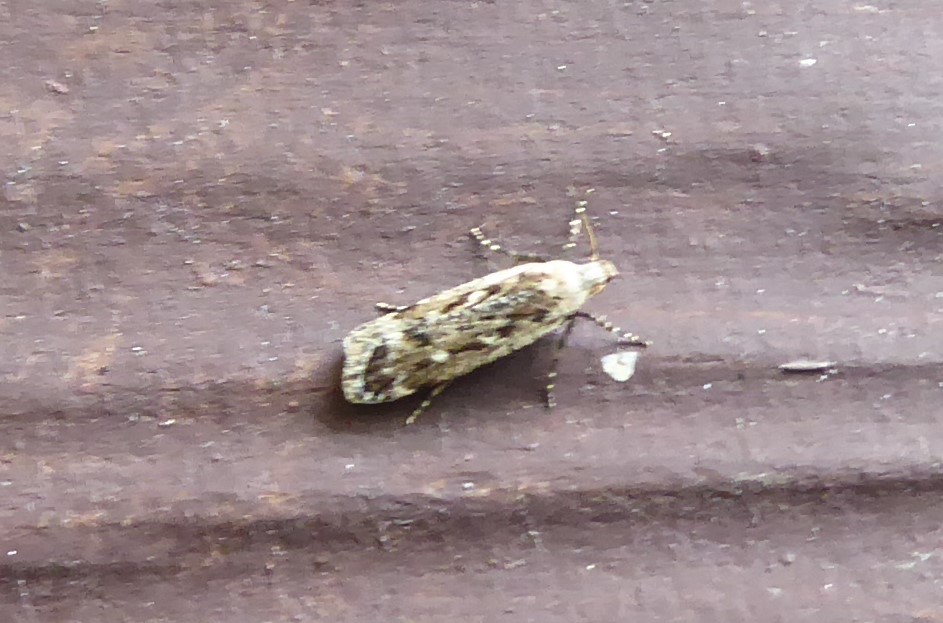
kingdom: Animalia
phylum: Arthropoda
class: Insecta
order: Lepidoptera
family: Gelechiidae
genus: Anisoplaca
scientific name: Anisoplaca achyrota
